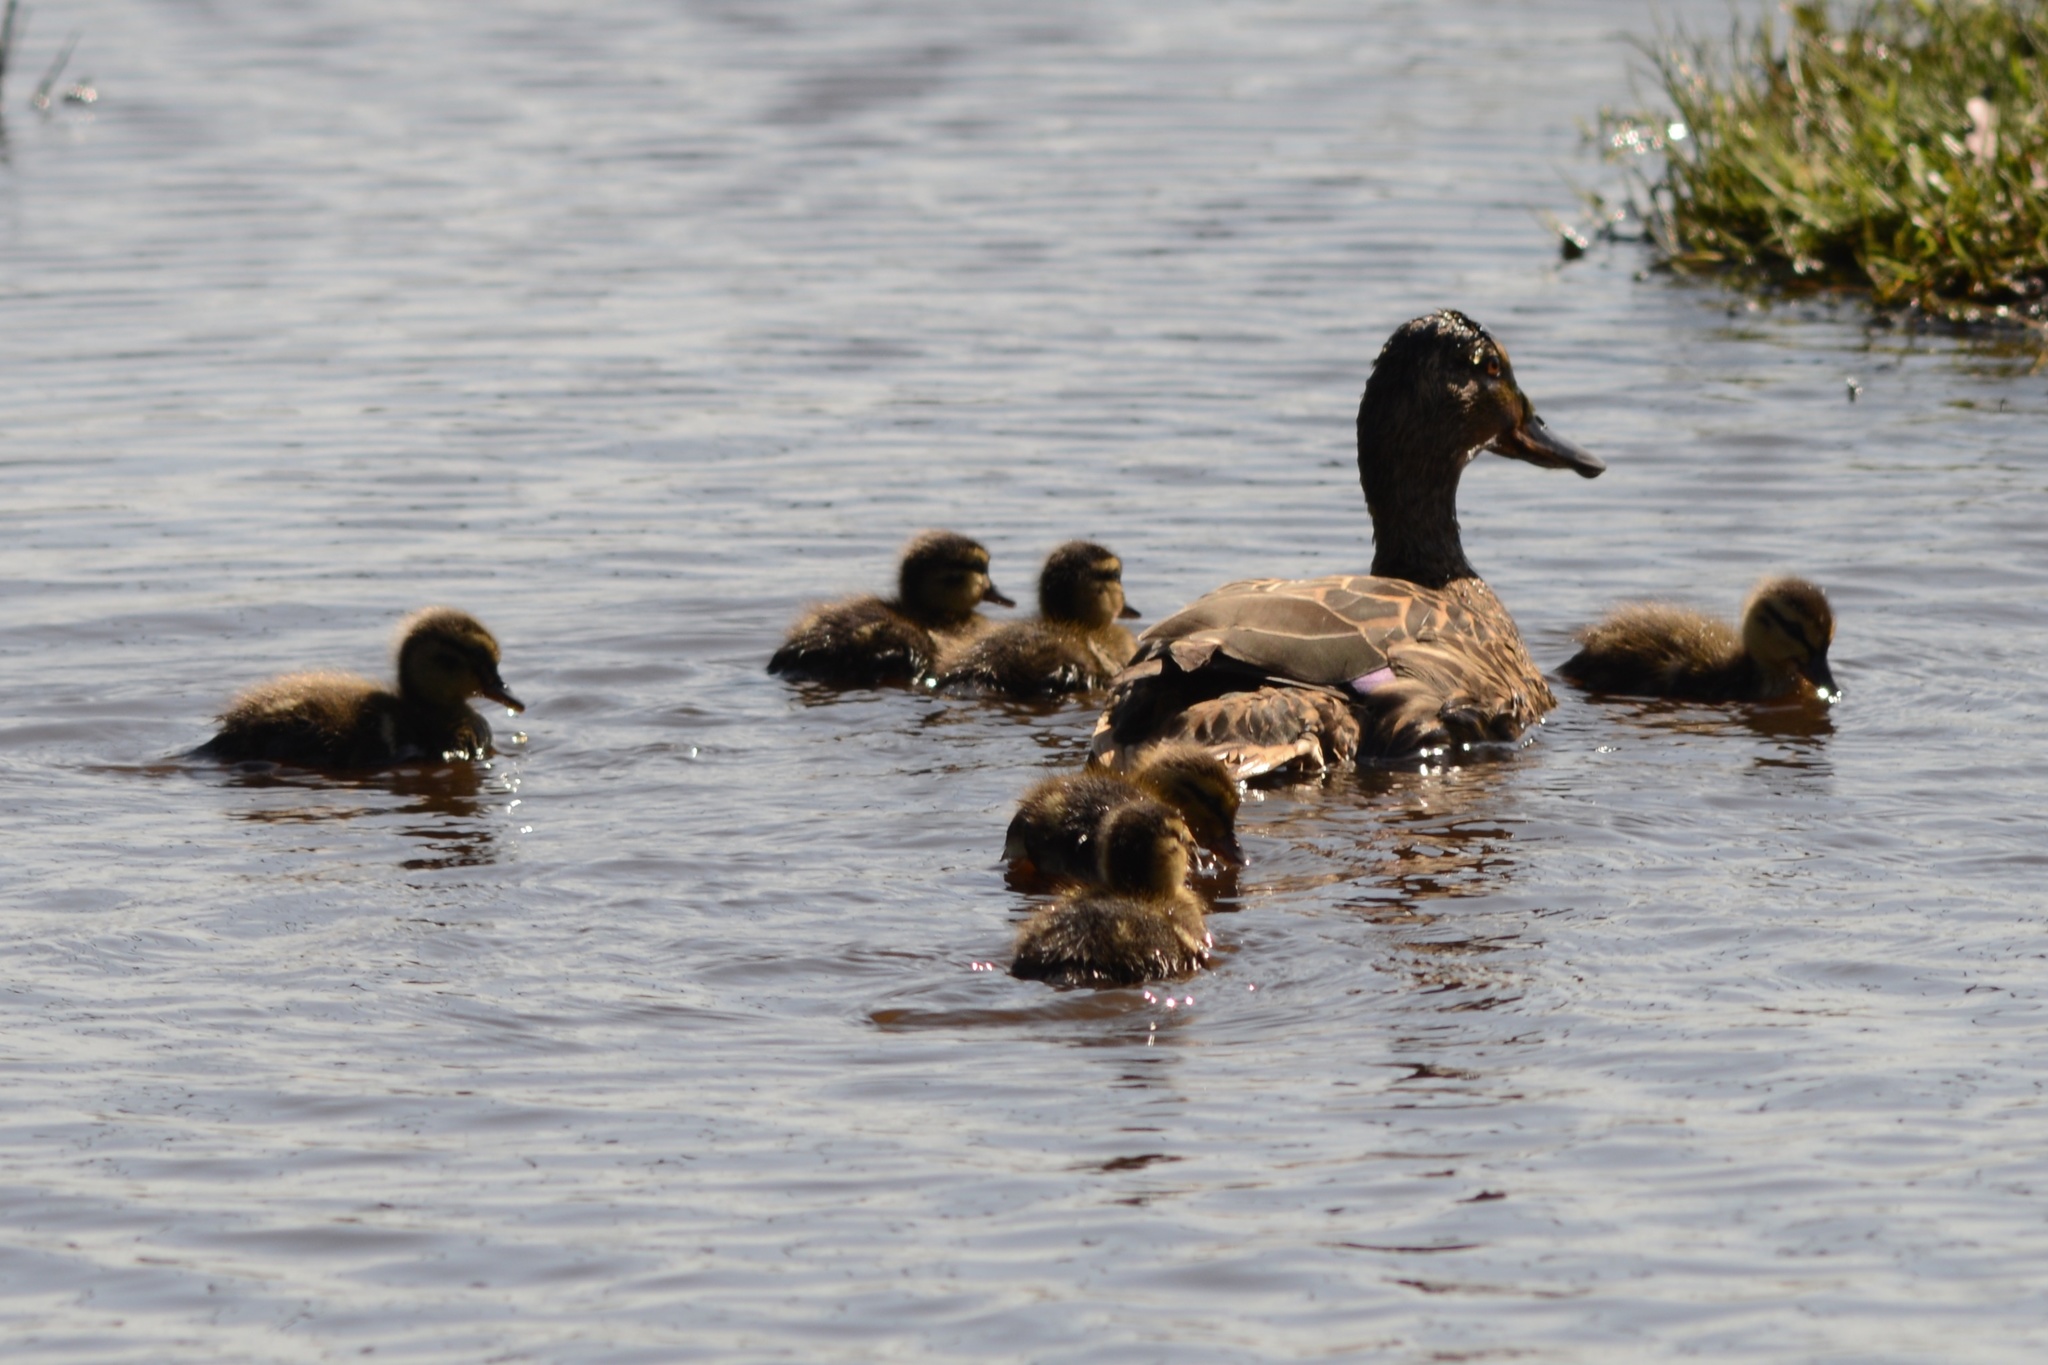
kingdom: Animalia
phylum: Chordata
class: Aves
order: Anseriformes
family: Anatidae
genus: Anas
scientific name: Anas
